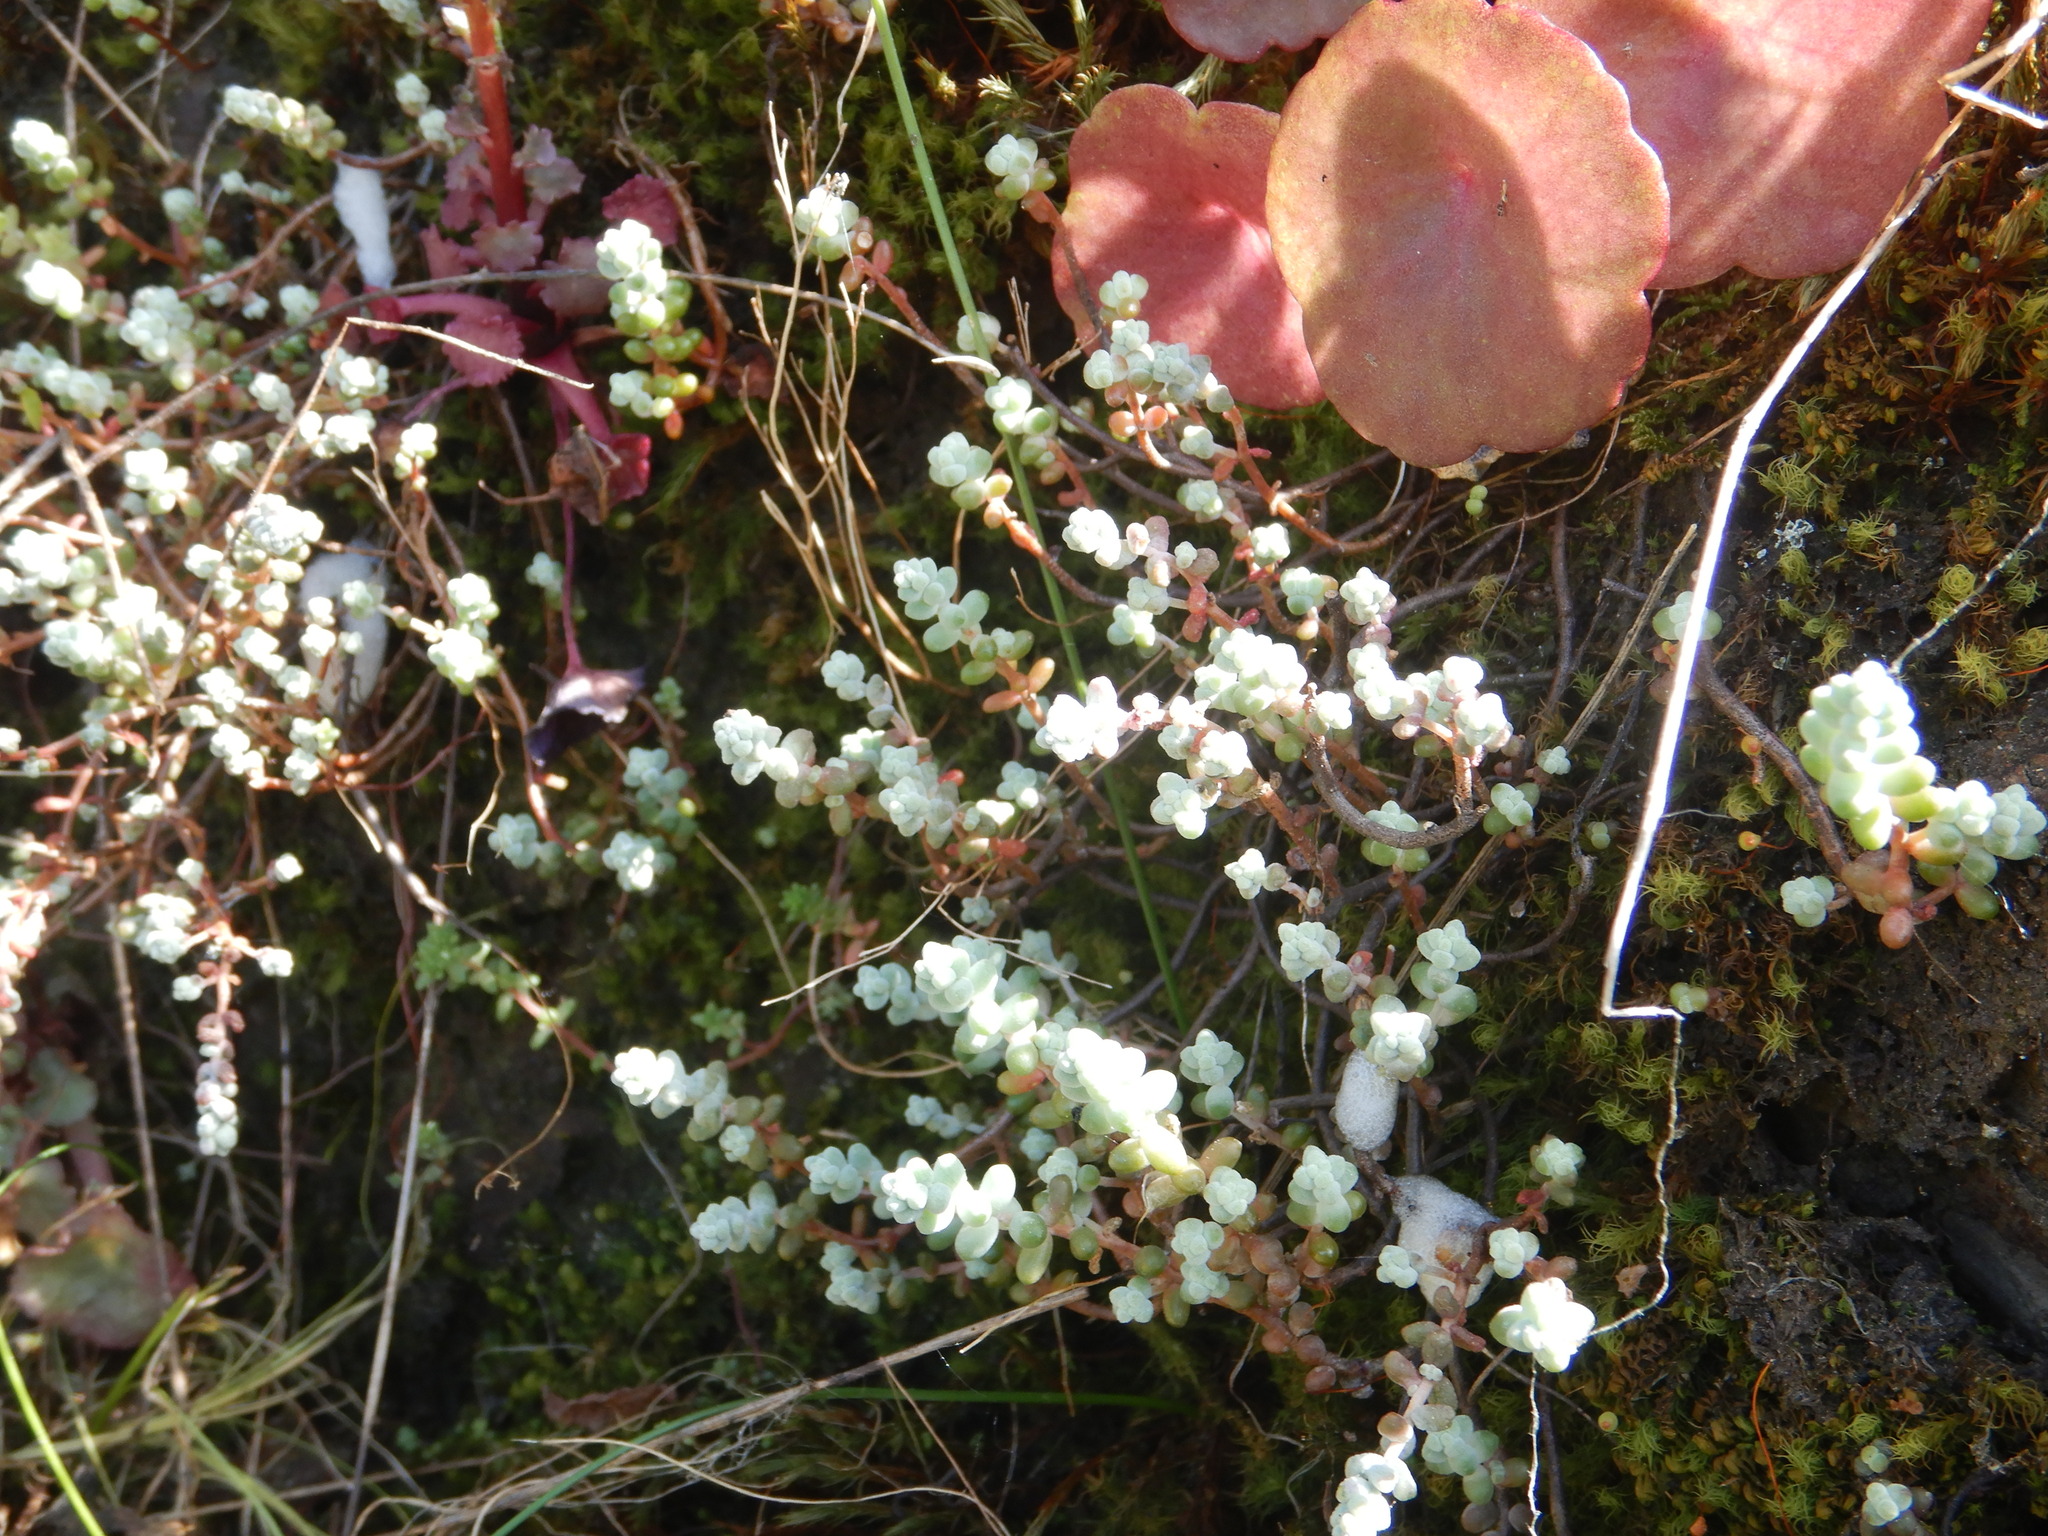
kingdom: Plantae
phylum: Tracheophyta
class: Magnoliopsida
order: Saxifragales
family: Crassulaceae
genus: Sedum
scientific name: Sedum brevifolium
